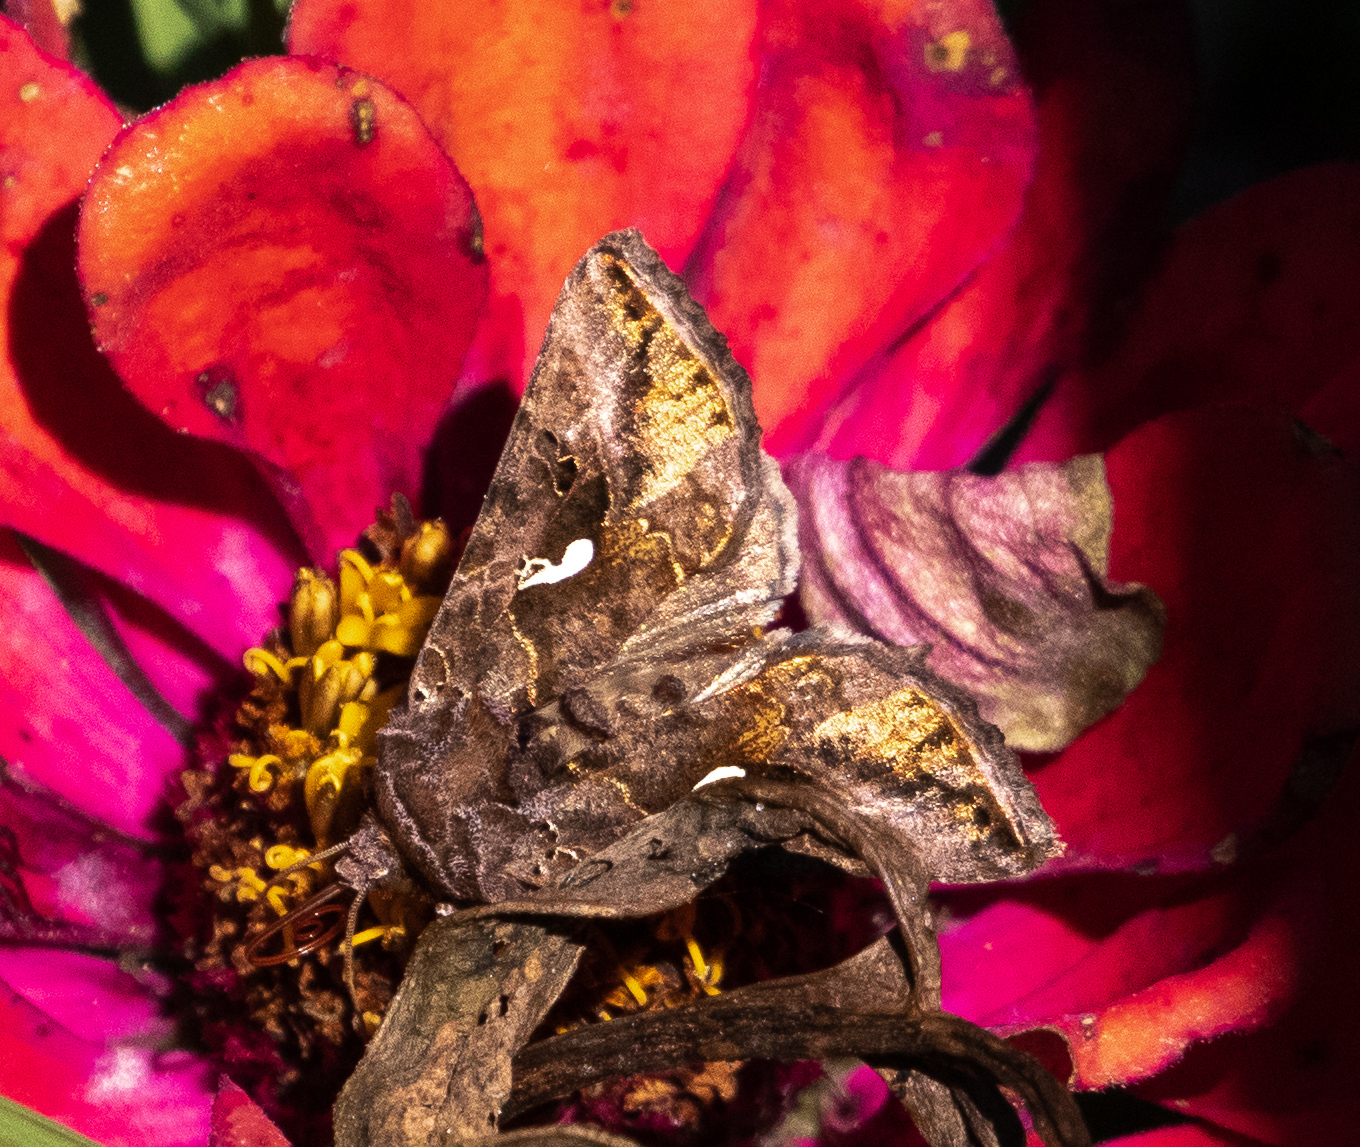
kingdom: Animalia
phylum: Arthropoda
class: Insecta
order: Lepidoptera
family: Noctuidae
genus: Autographa
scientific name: Autographa precationis
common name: Common looper moth
